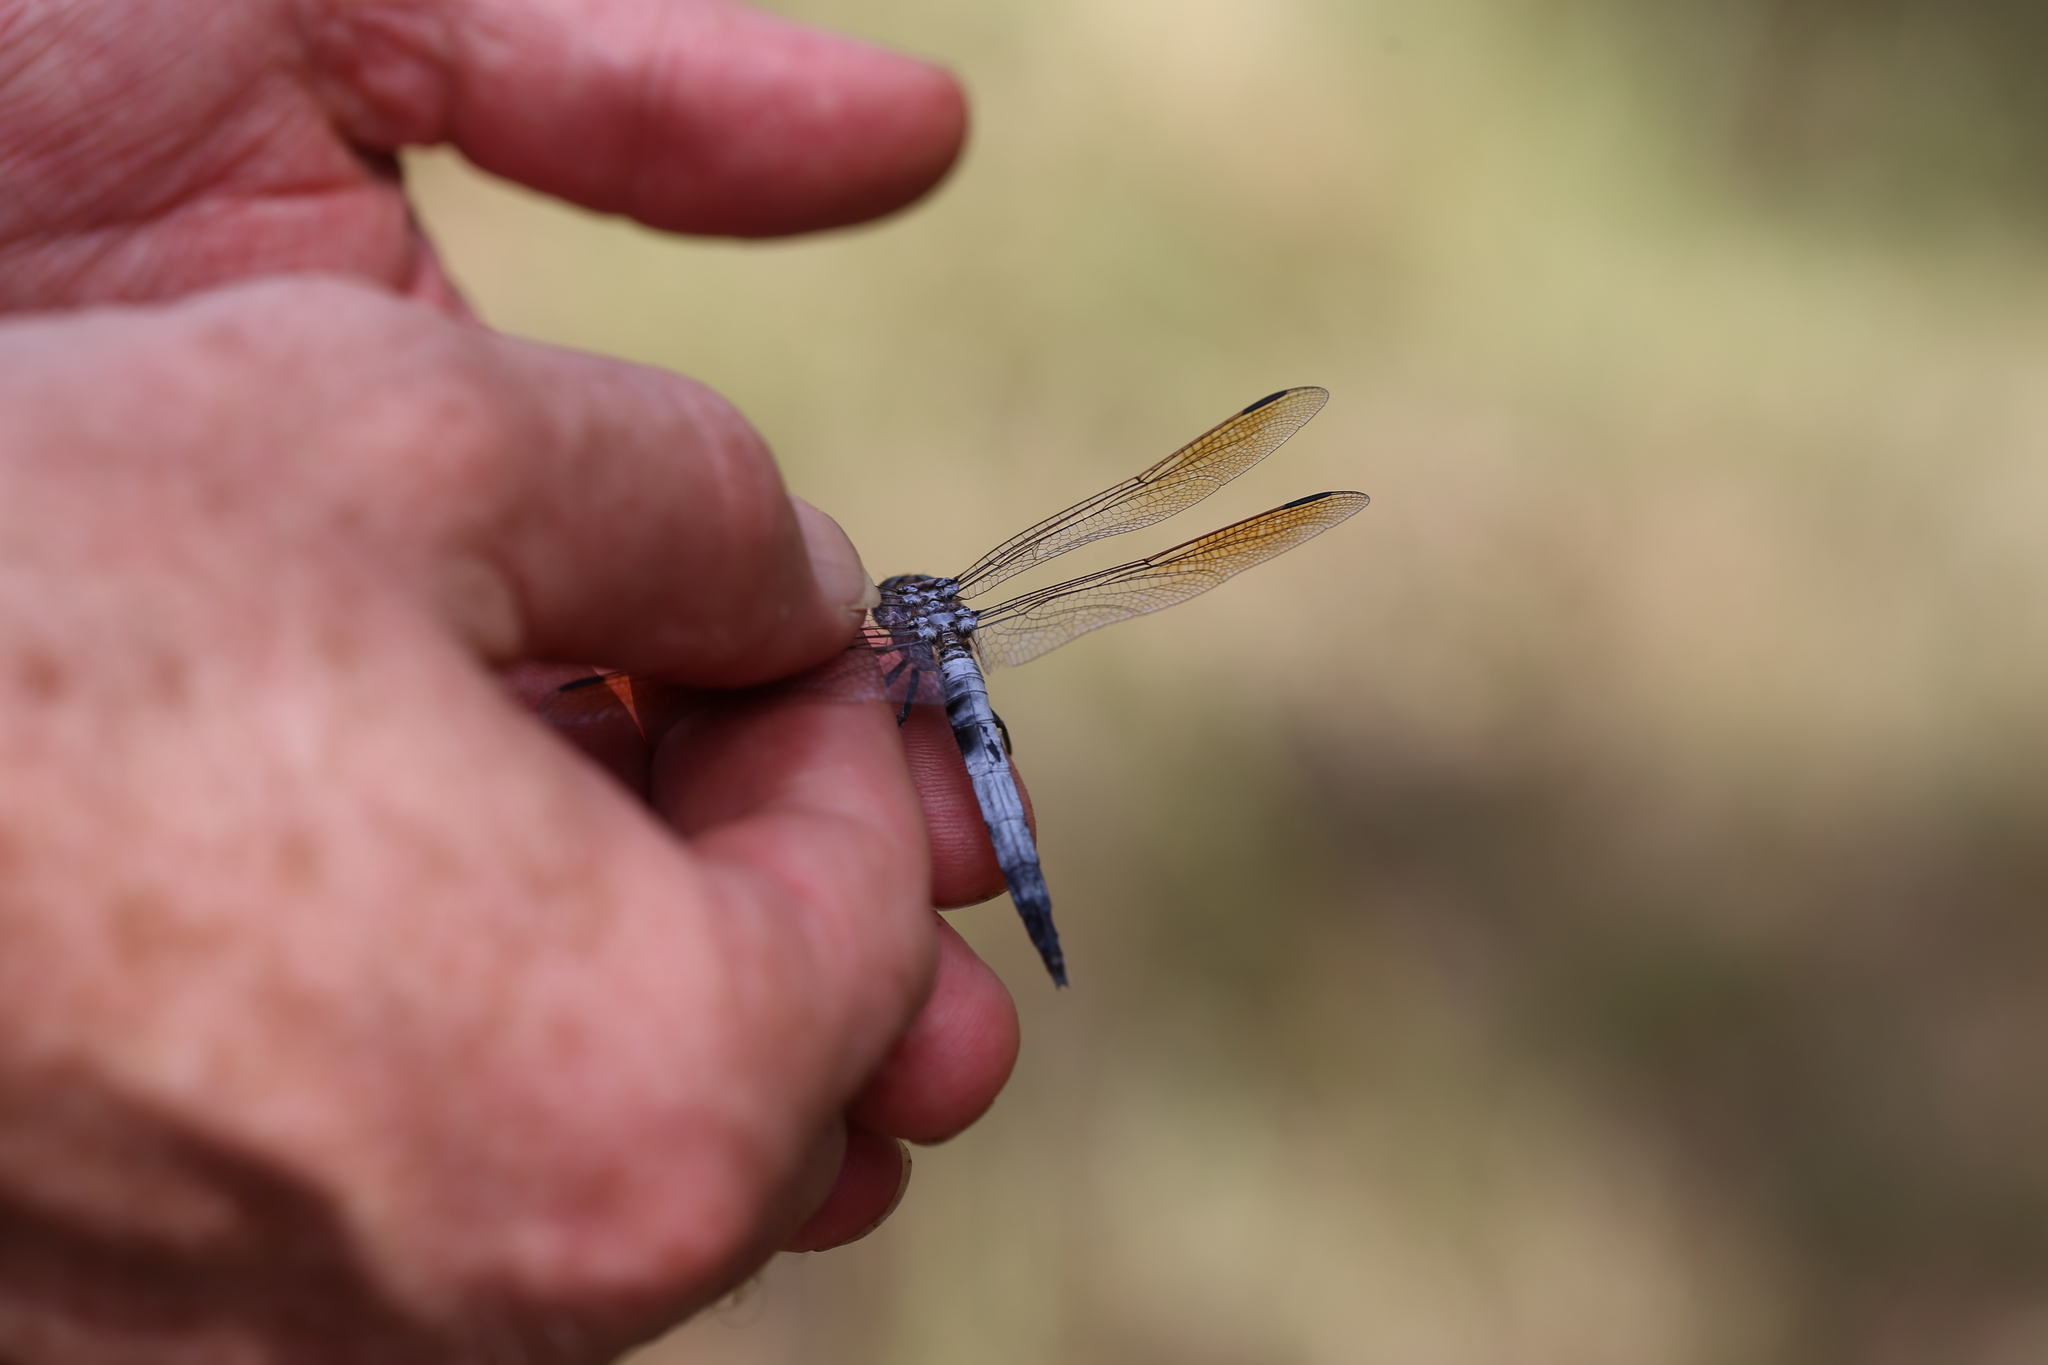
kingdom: Animalia
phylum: Arthropoda
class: Insecta
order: Odonata
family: Libellulidae
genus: Orthetrum
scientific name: Orthetrum caledonicum
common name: Blue skimmer
